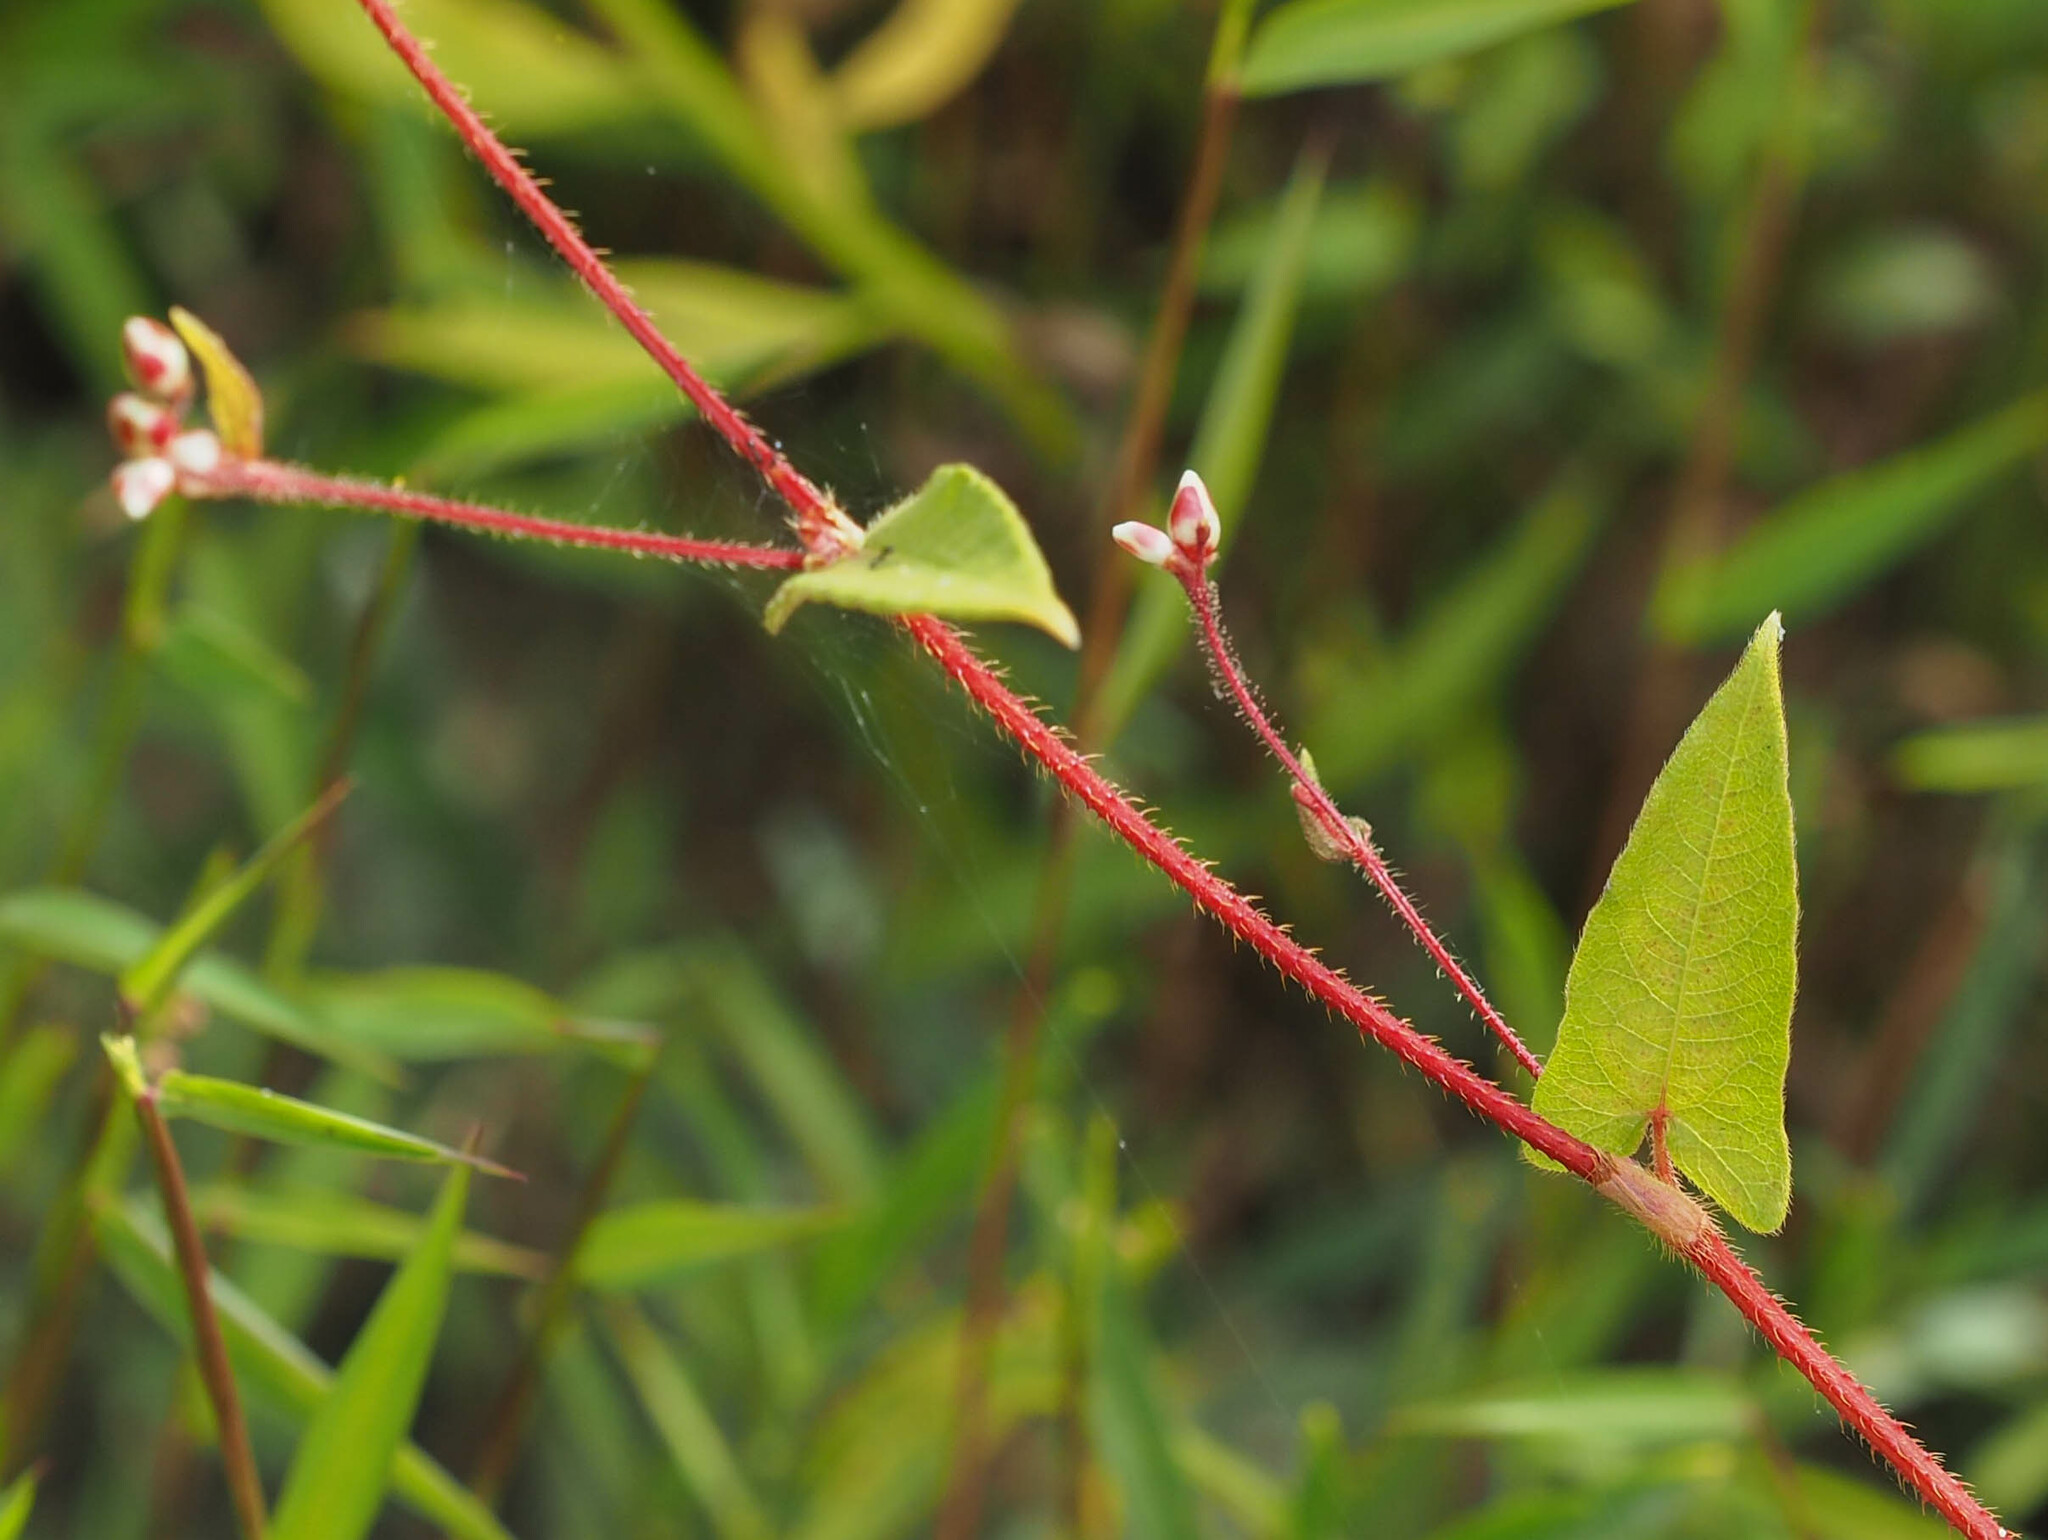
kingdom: Plantae
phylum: Tracheophyta
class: Magnoliopsida
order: Caryophyllales
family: Polygonaceae
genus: Persicaria
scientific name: Persicaria arifolia
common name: Halberd-leaved tear-thumb
